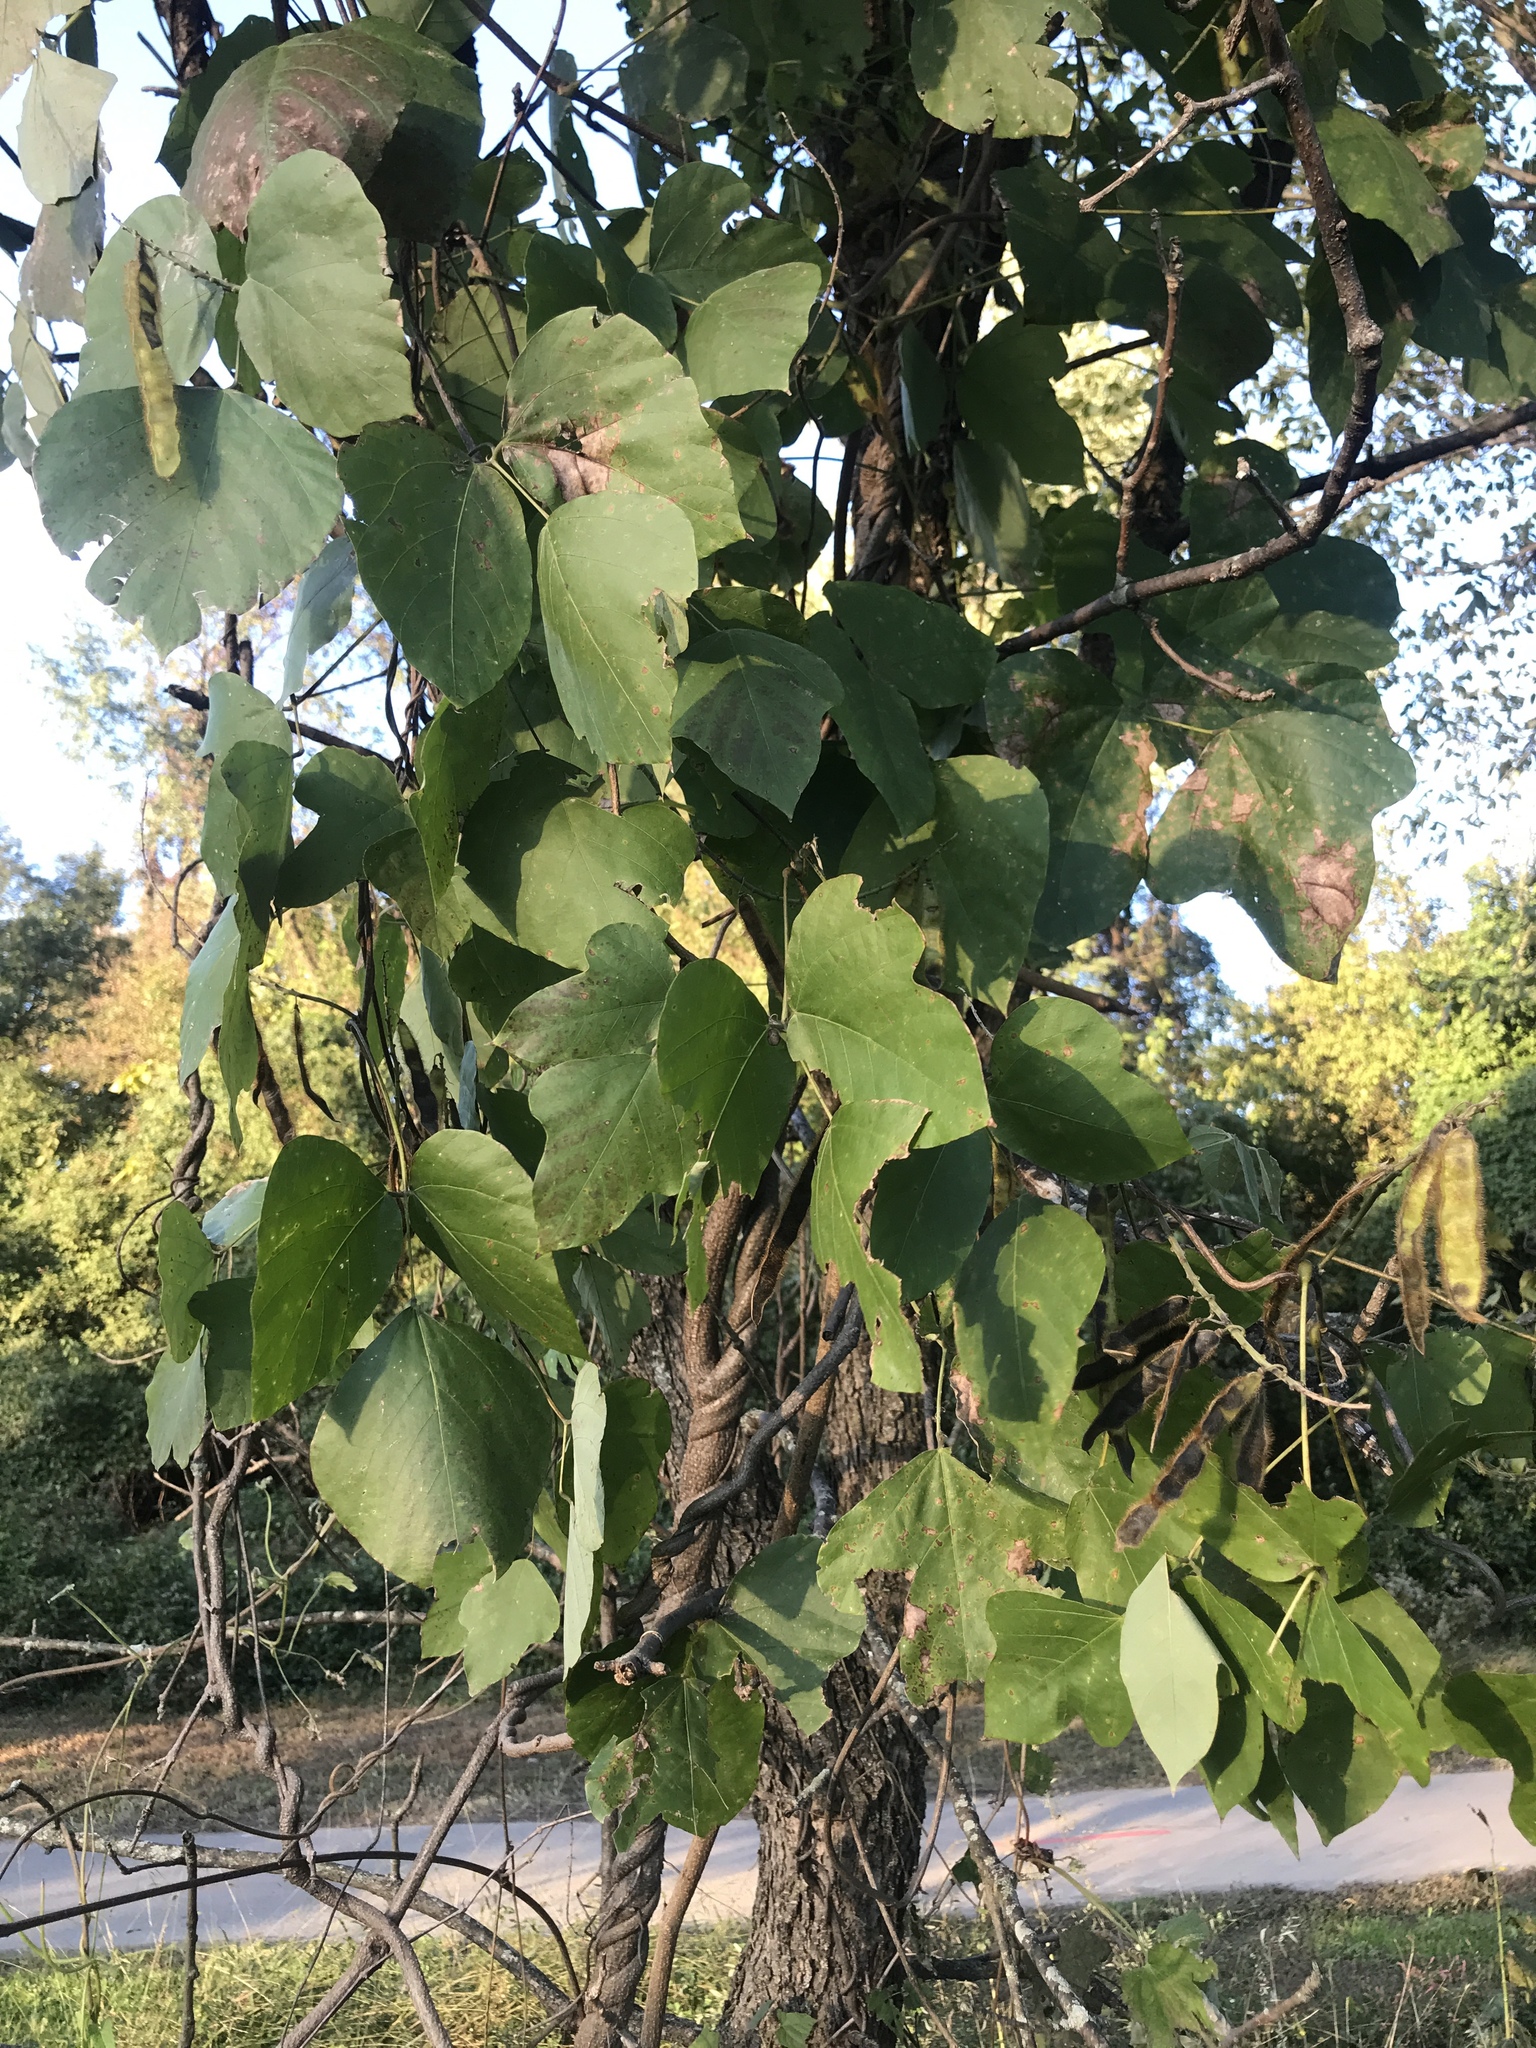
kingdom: Plantae
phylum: Tracheophyta
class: Magnoliopsida
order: Fabales
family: Fabaceae
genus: Pueraria
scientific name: Pueraria montana
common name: Kudzu
